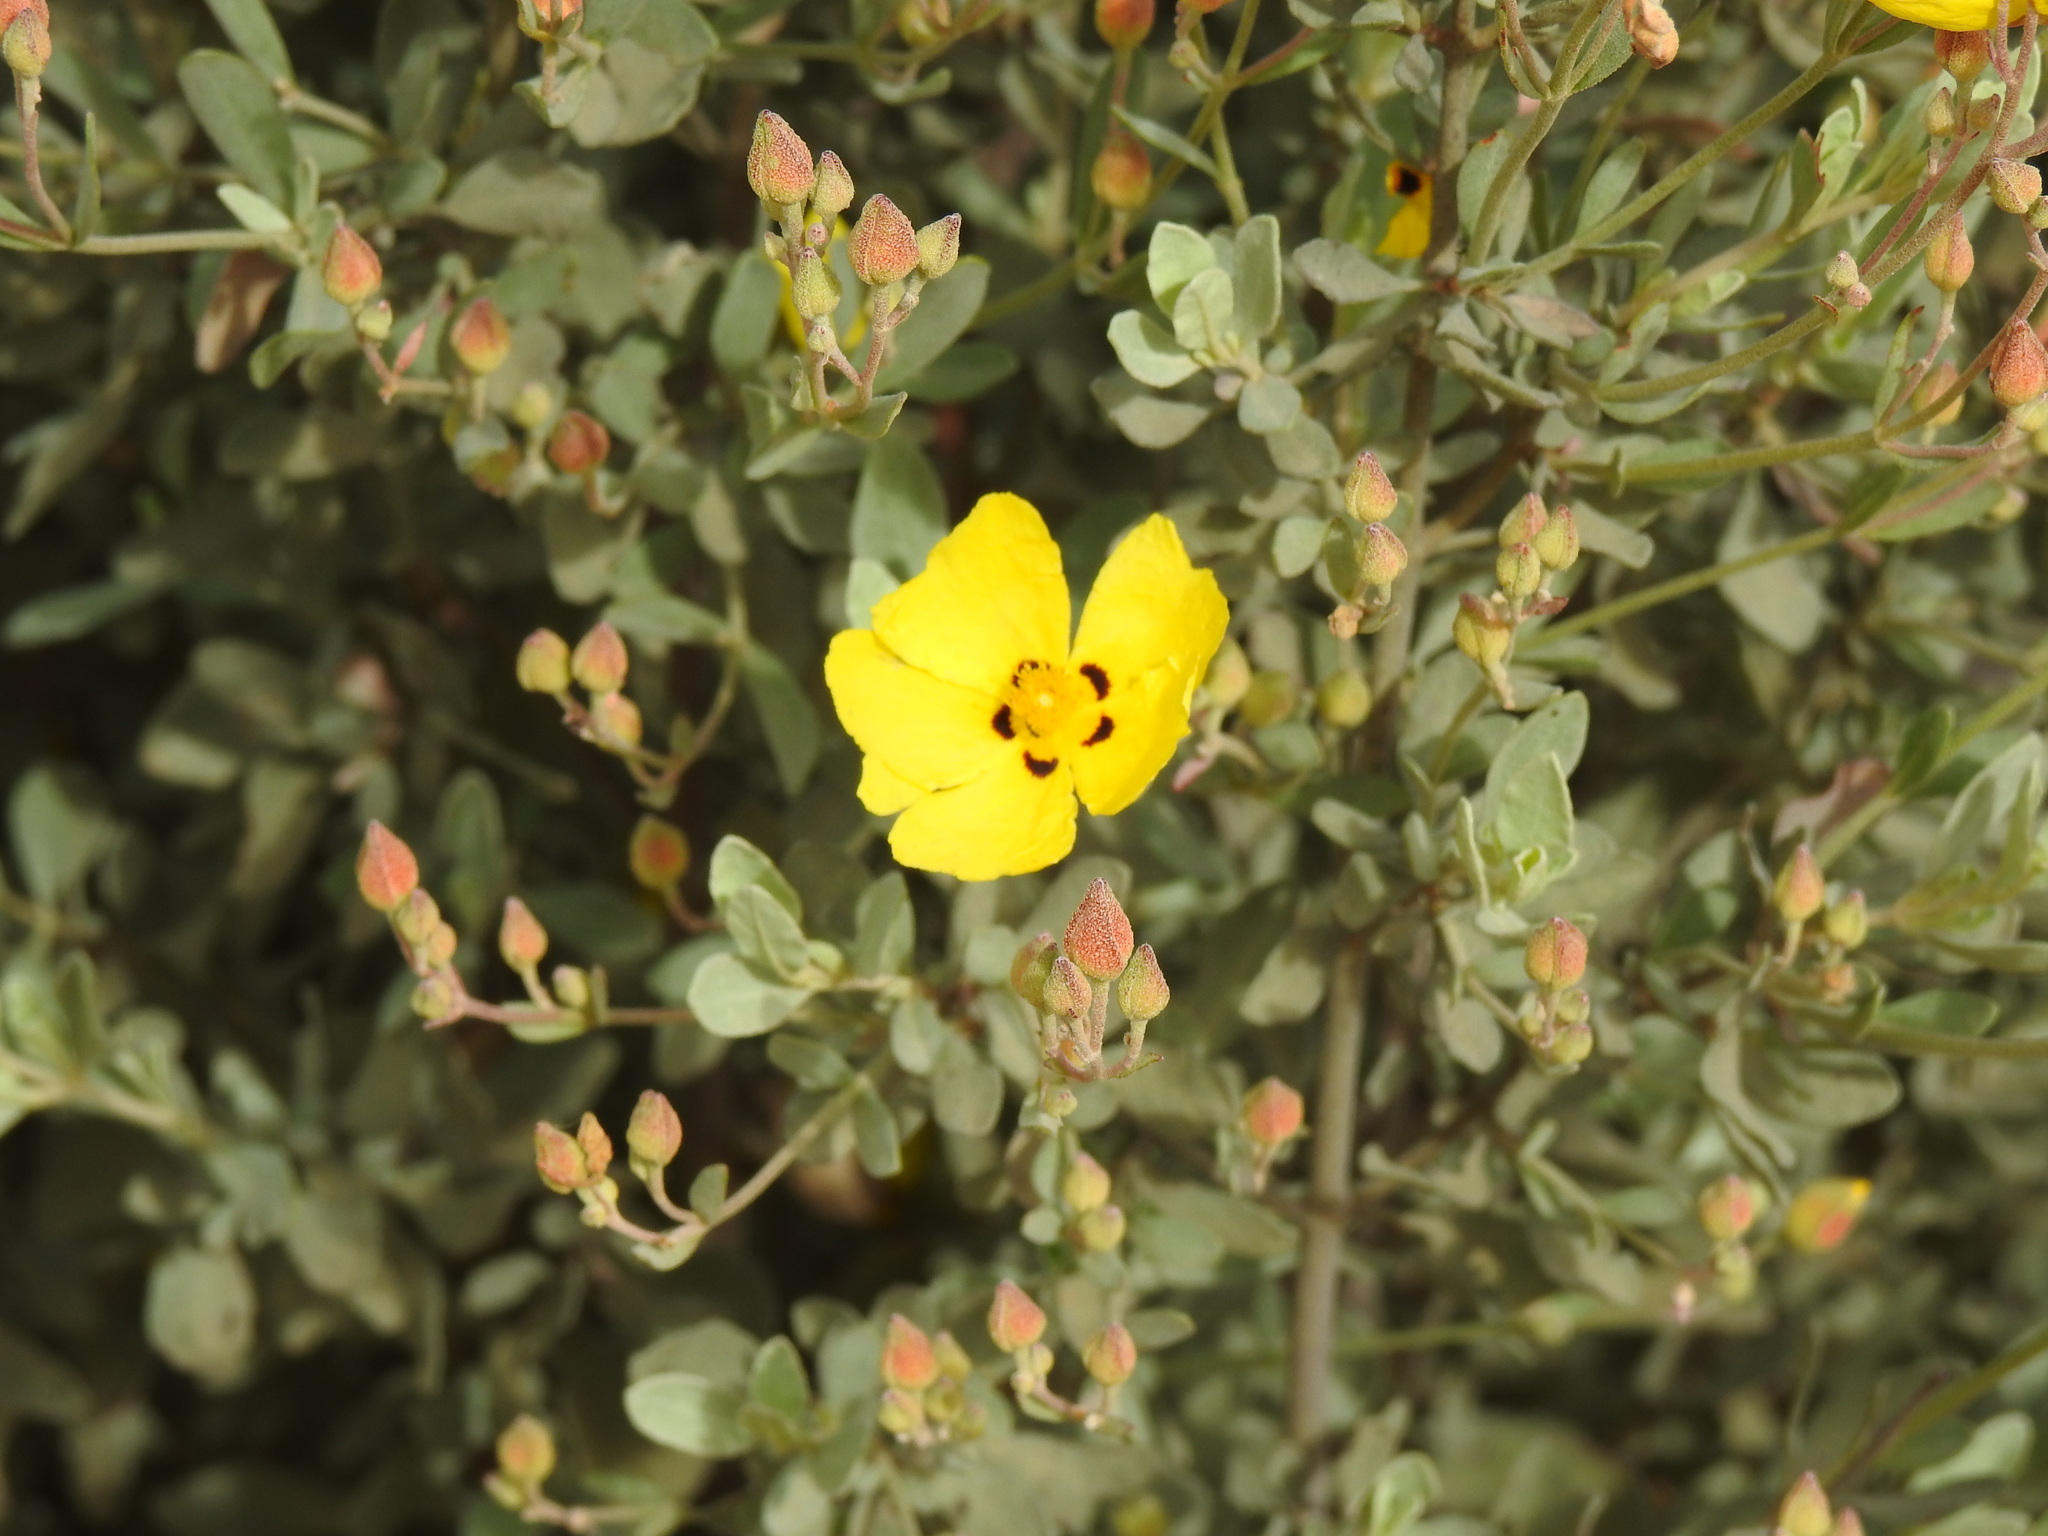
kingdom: Plantae
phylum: Tracheophyta
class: Magnoliopsida
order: Malvales
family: Cistaceae
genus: Halimium
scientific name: Halimium halimifolium
